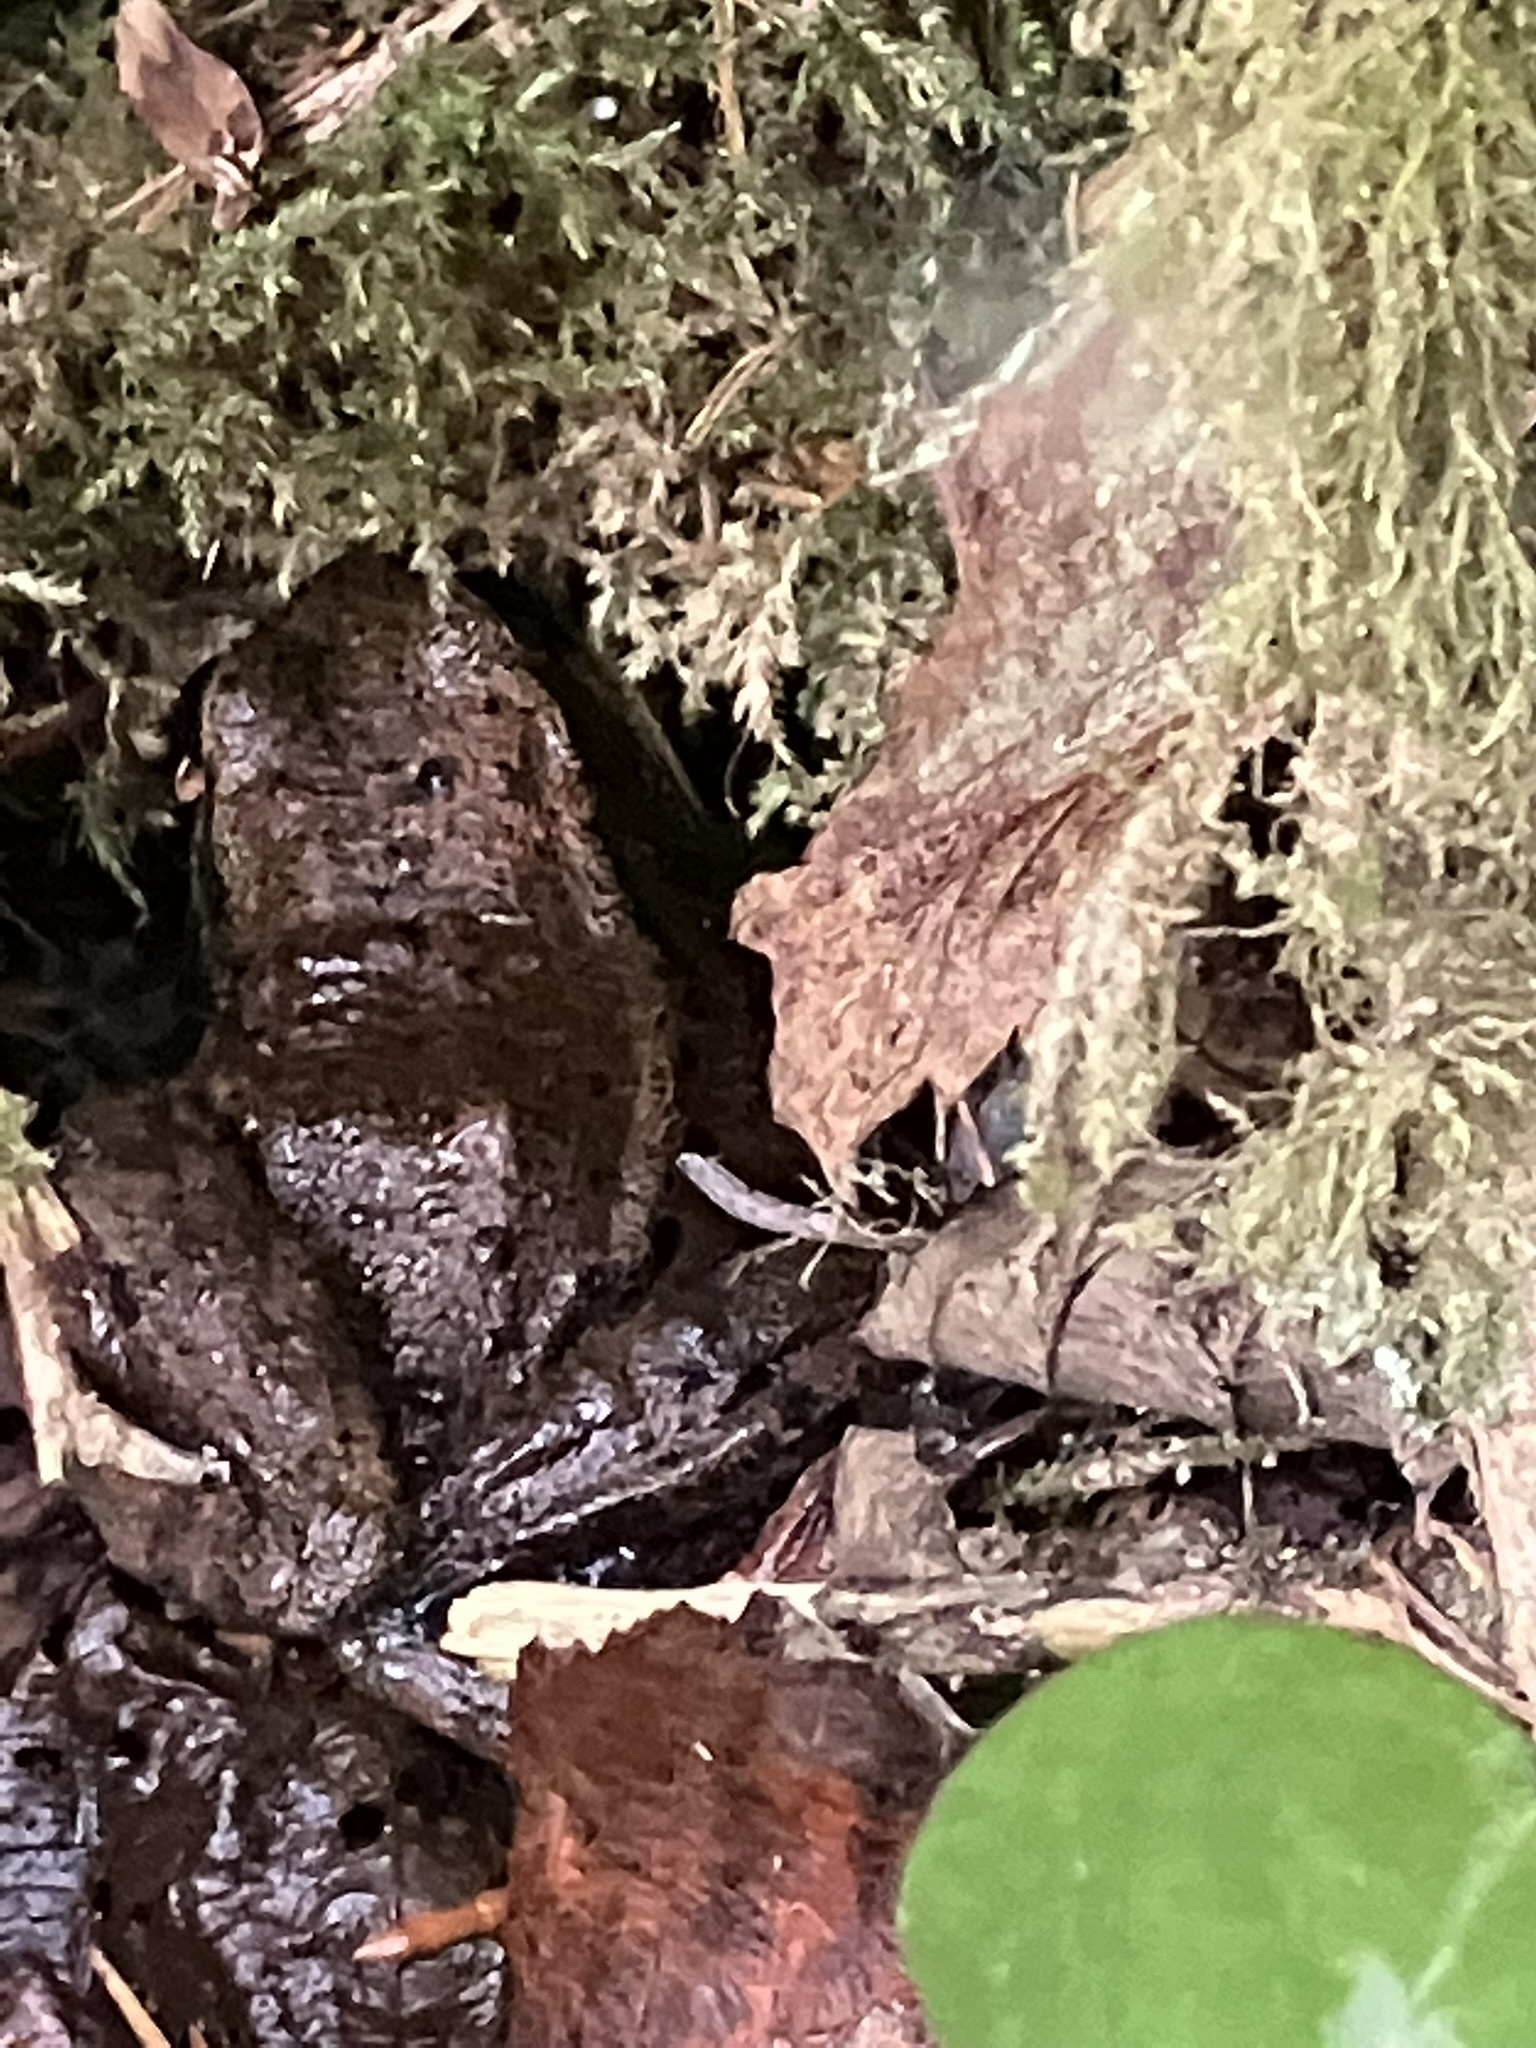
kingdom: Animalia
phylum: Chordata
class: Amphibia
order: Anura
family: Ranidae
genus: Rana
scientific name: Rana aurora
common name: Red-legged frog
